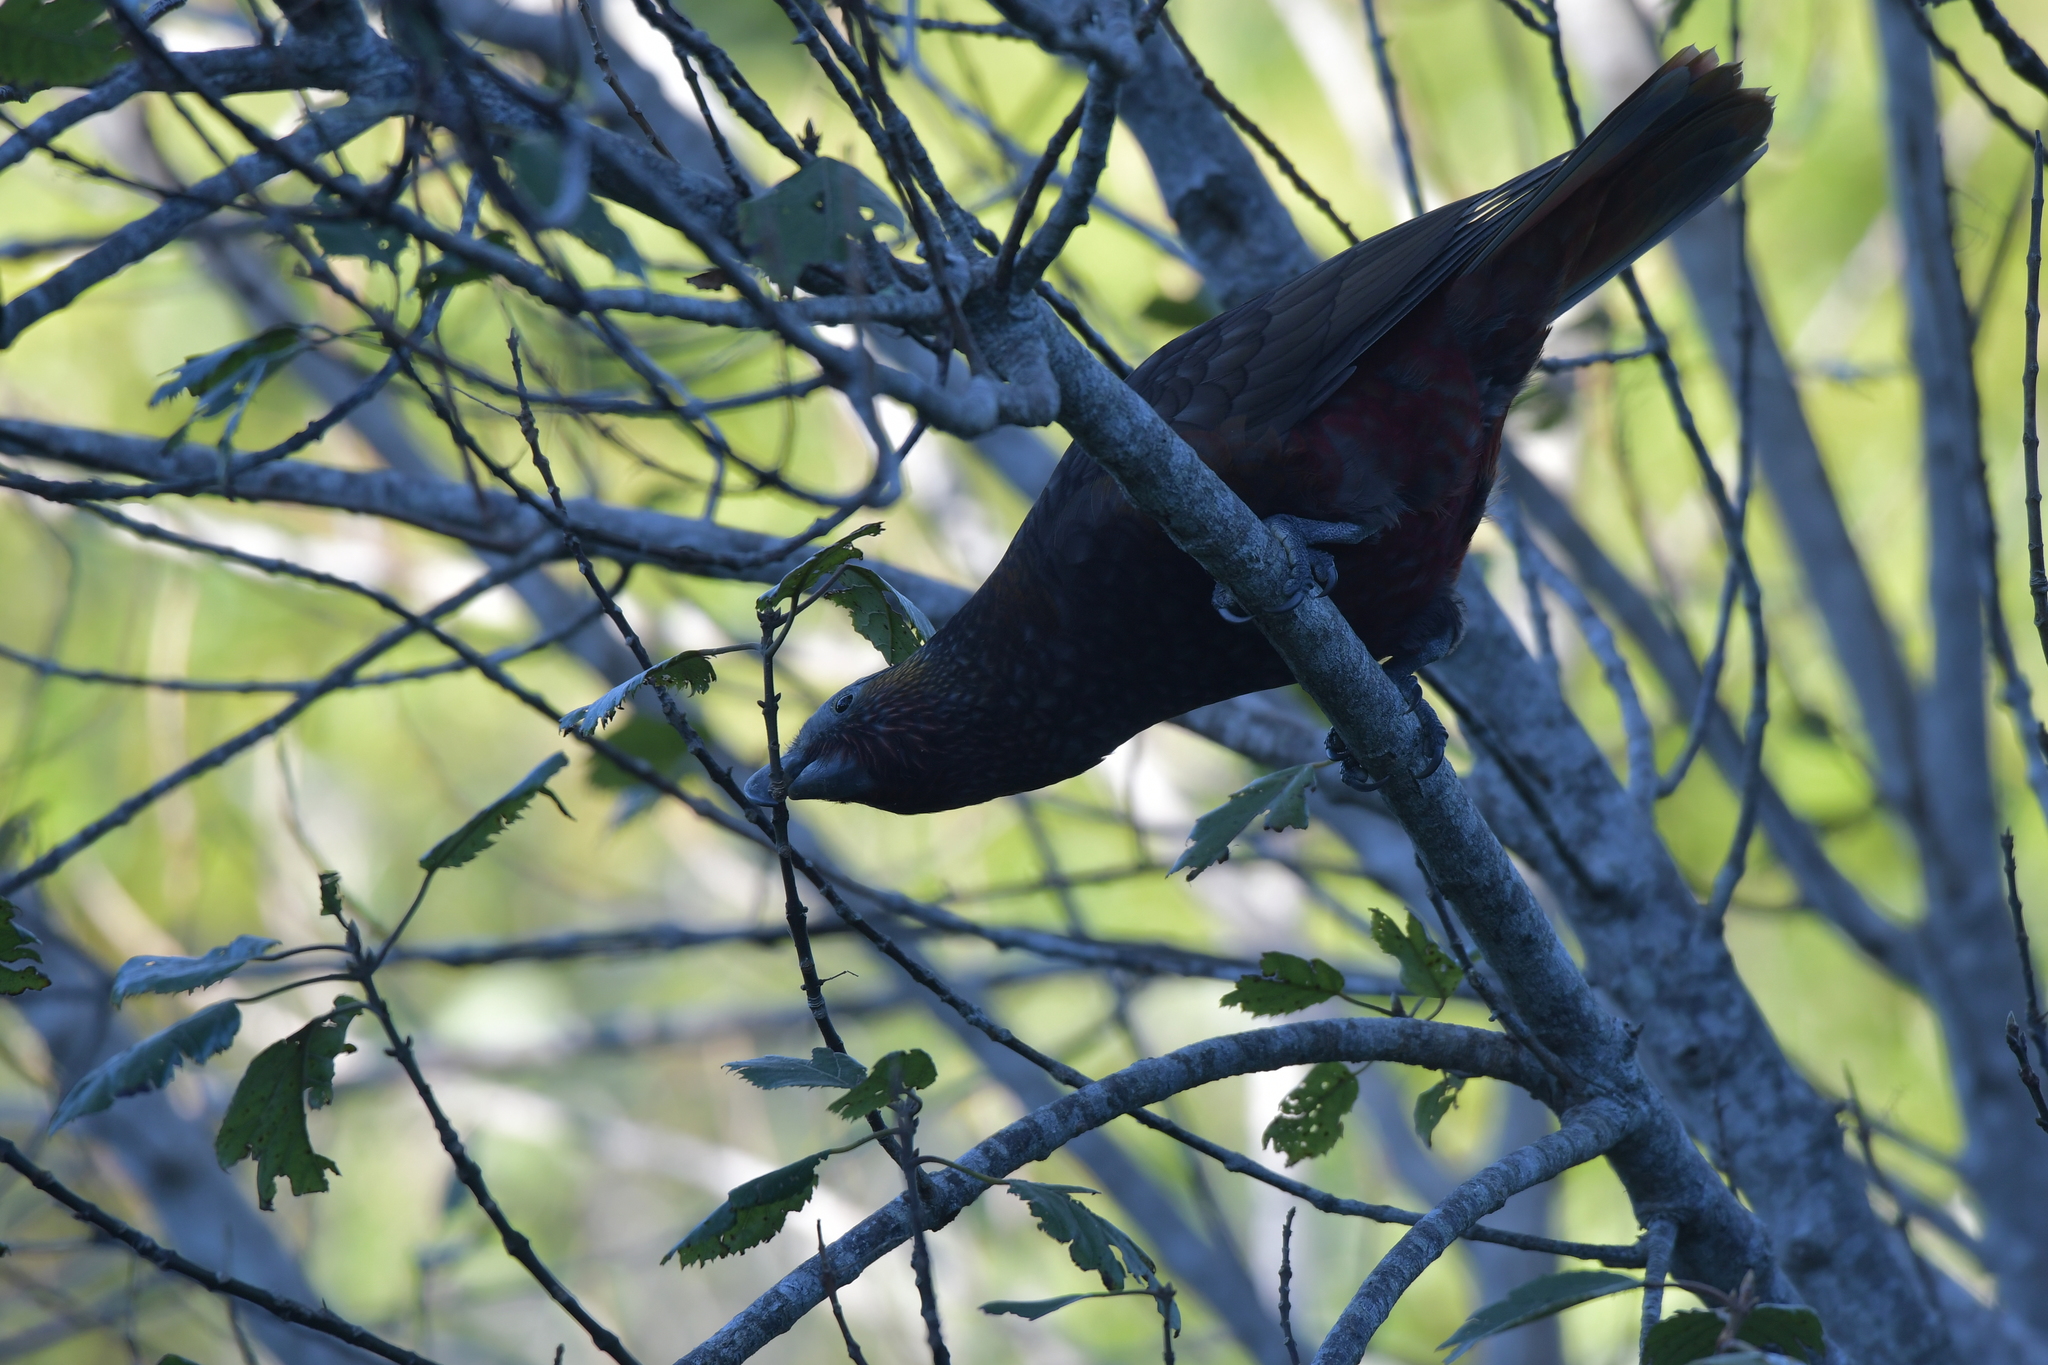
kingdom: Animalia
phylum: Chordata
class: Aves
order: Psittaciformes
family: Psittacidae
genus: Nestor
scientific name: Nestor meridionalis
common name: New zealand kaka
